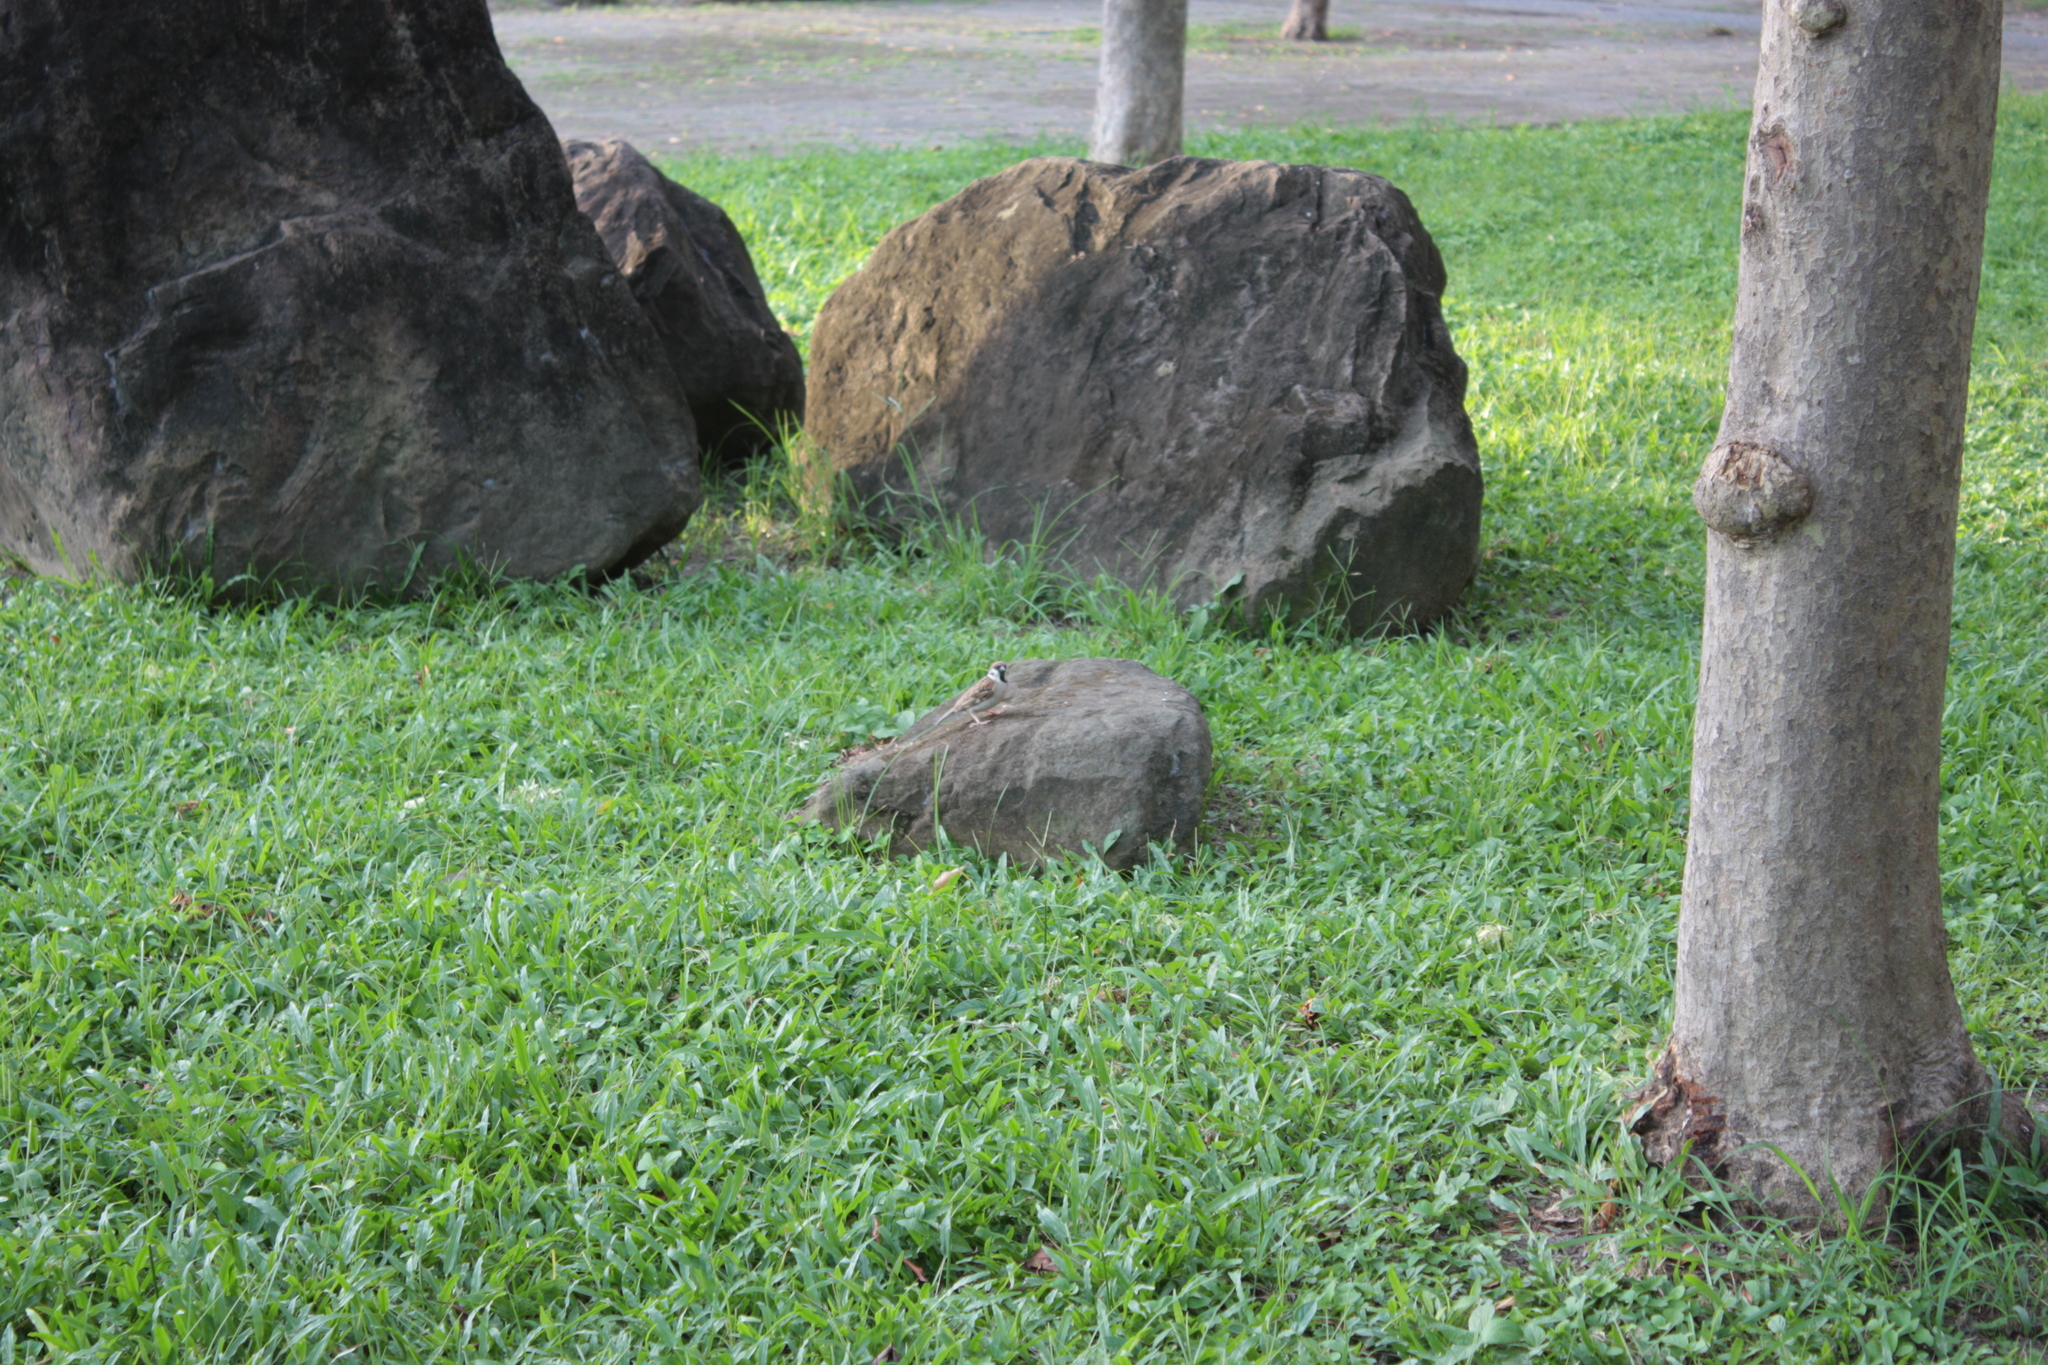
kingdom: Animalia
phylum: Chordata
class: Aves
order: Passeriformes
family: Passeridae
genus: Passer
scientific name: Passer montanus
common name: Eurasian tree sparrow
